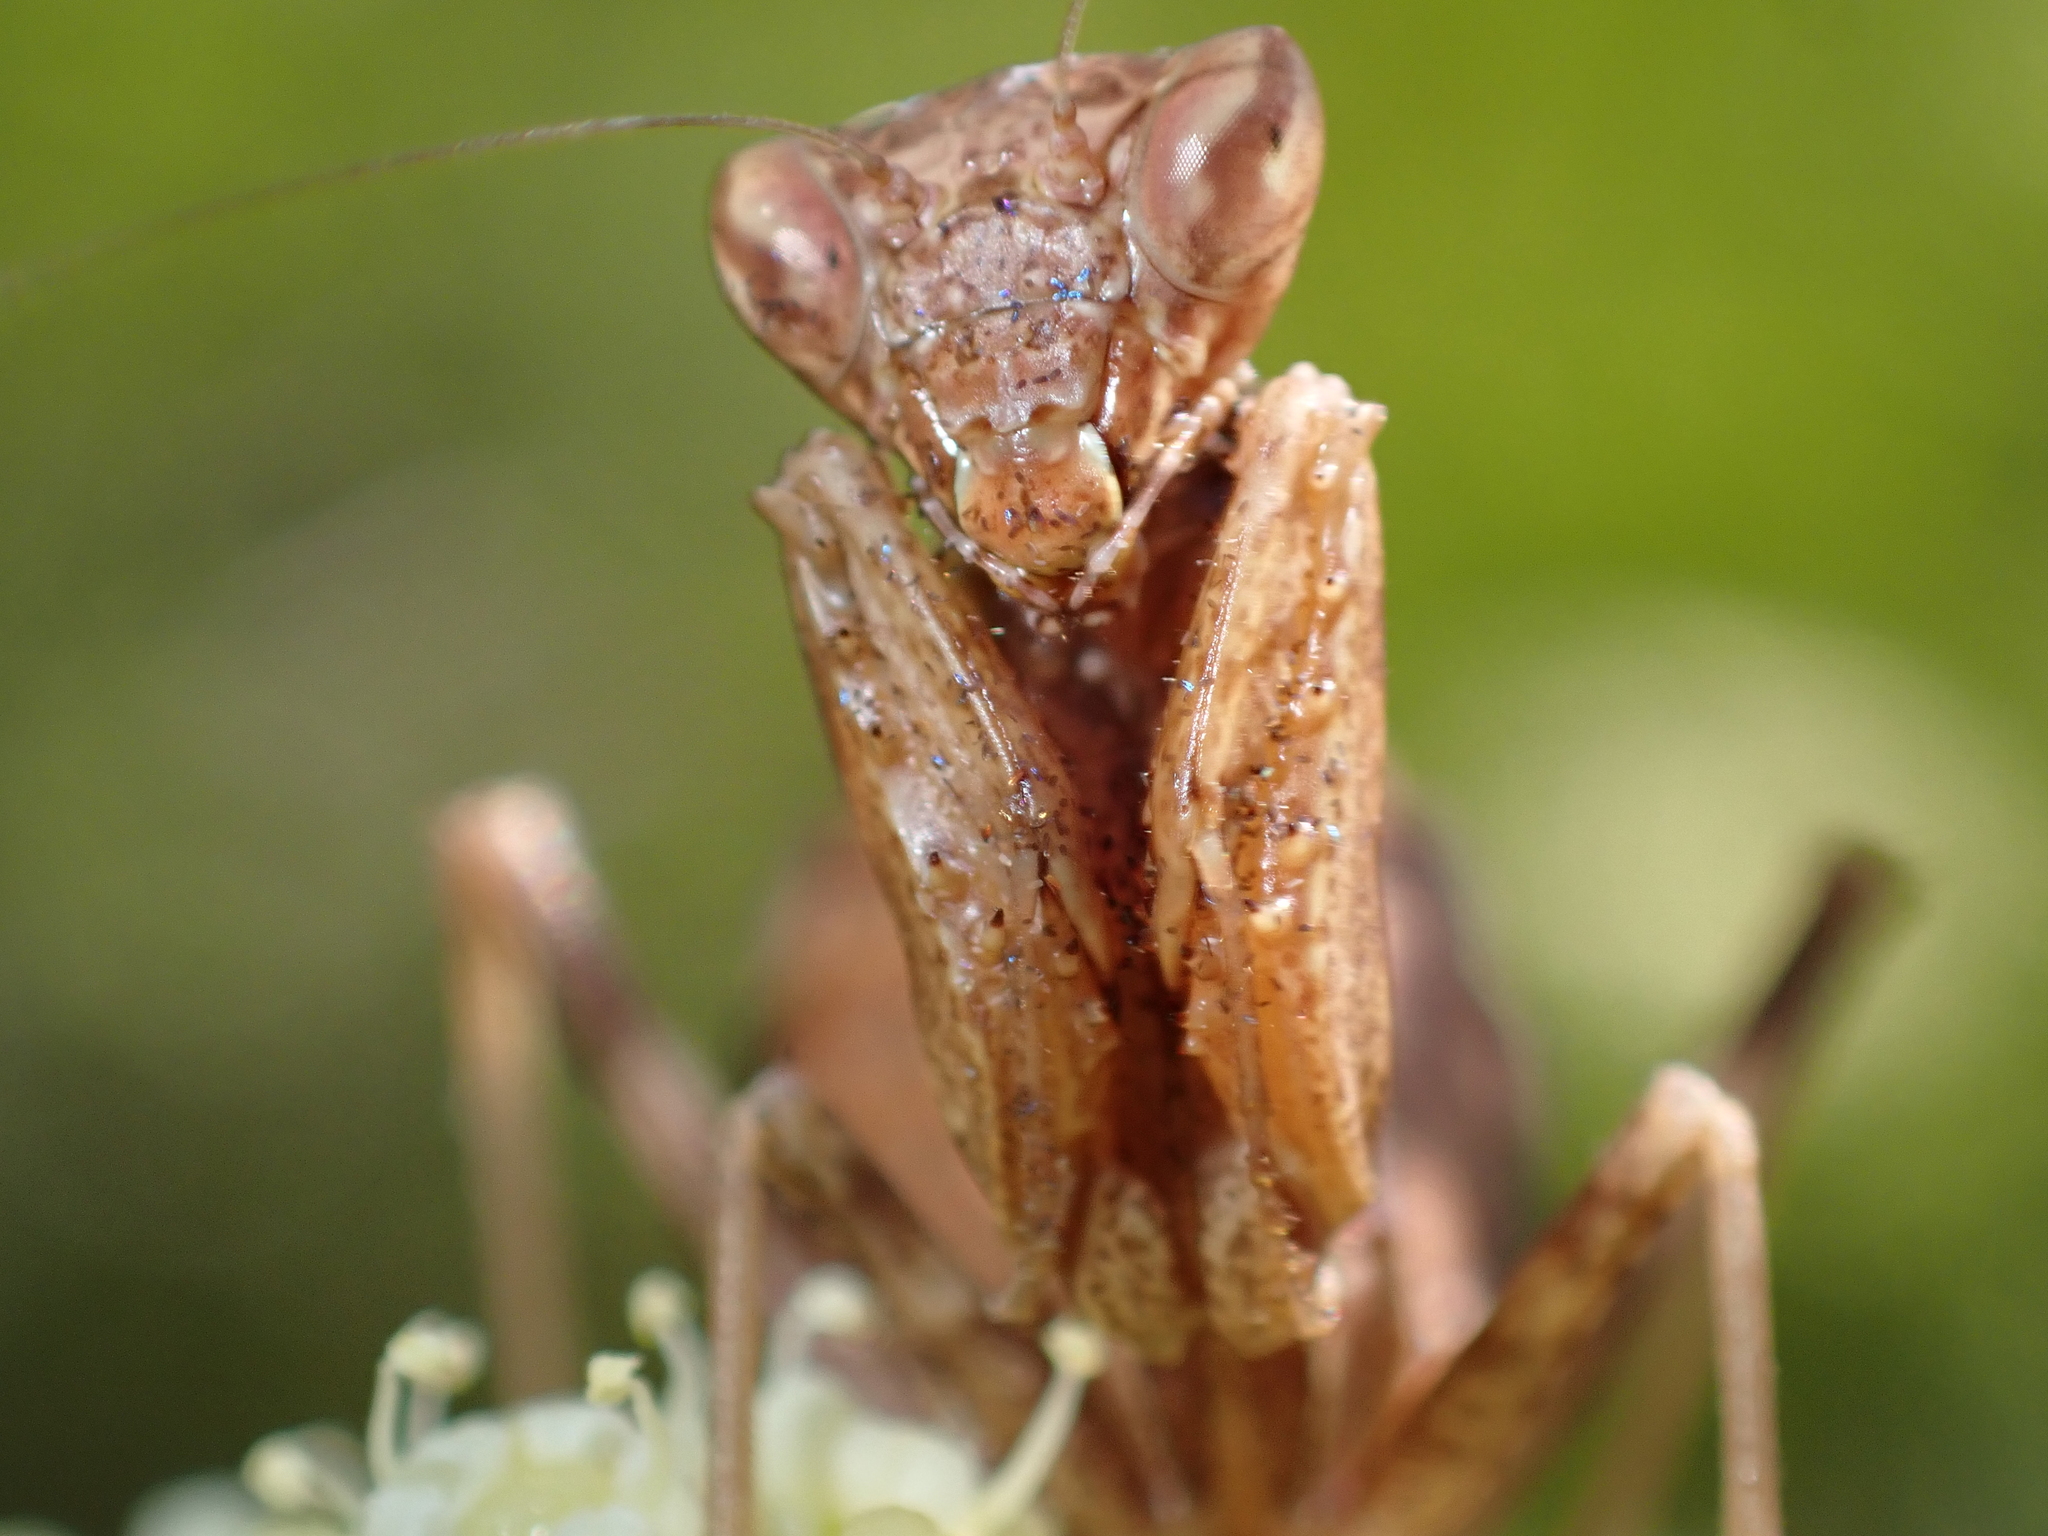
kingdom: Animalia
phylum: Arthropoda
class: Insecta
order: Mantodea
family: Amelidae
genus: Ameles
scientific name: Ameles spallanzania
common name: European dwarf mantis
